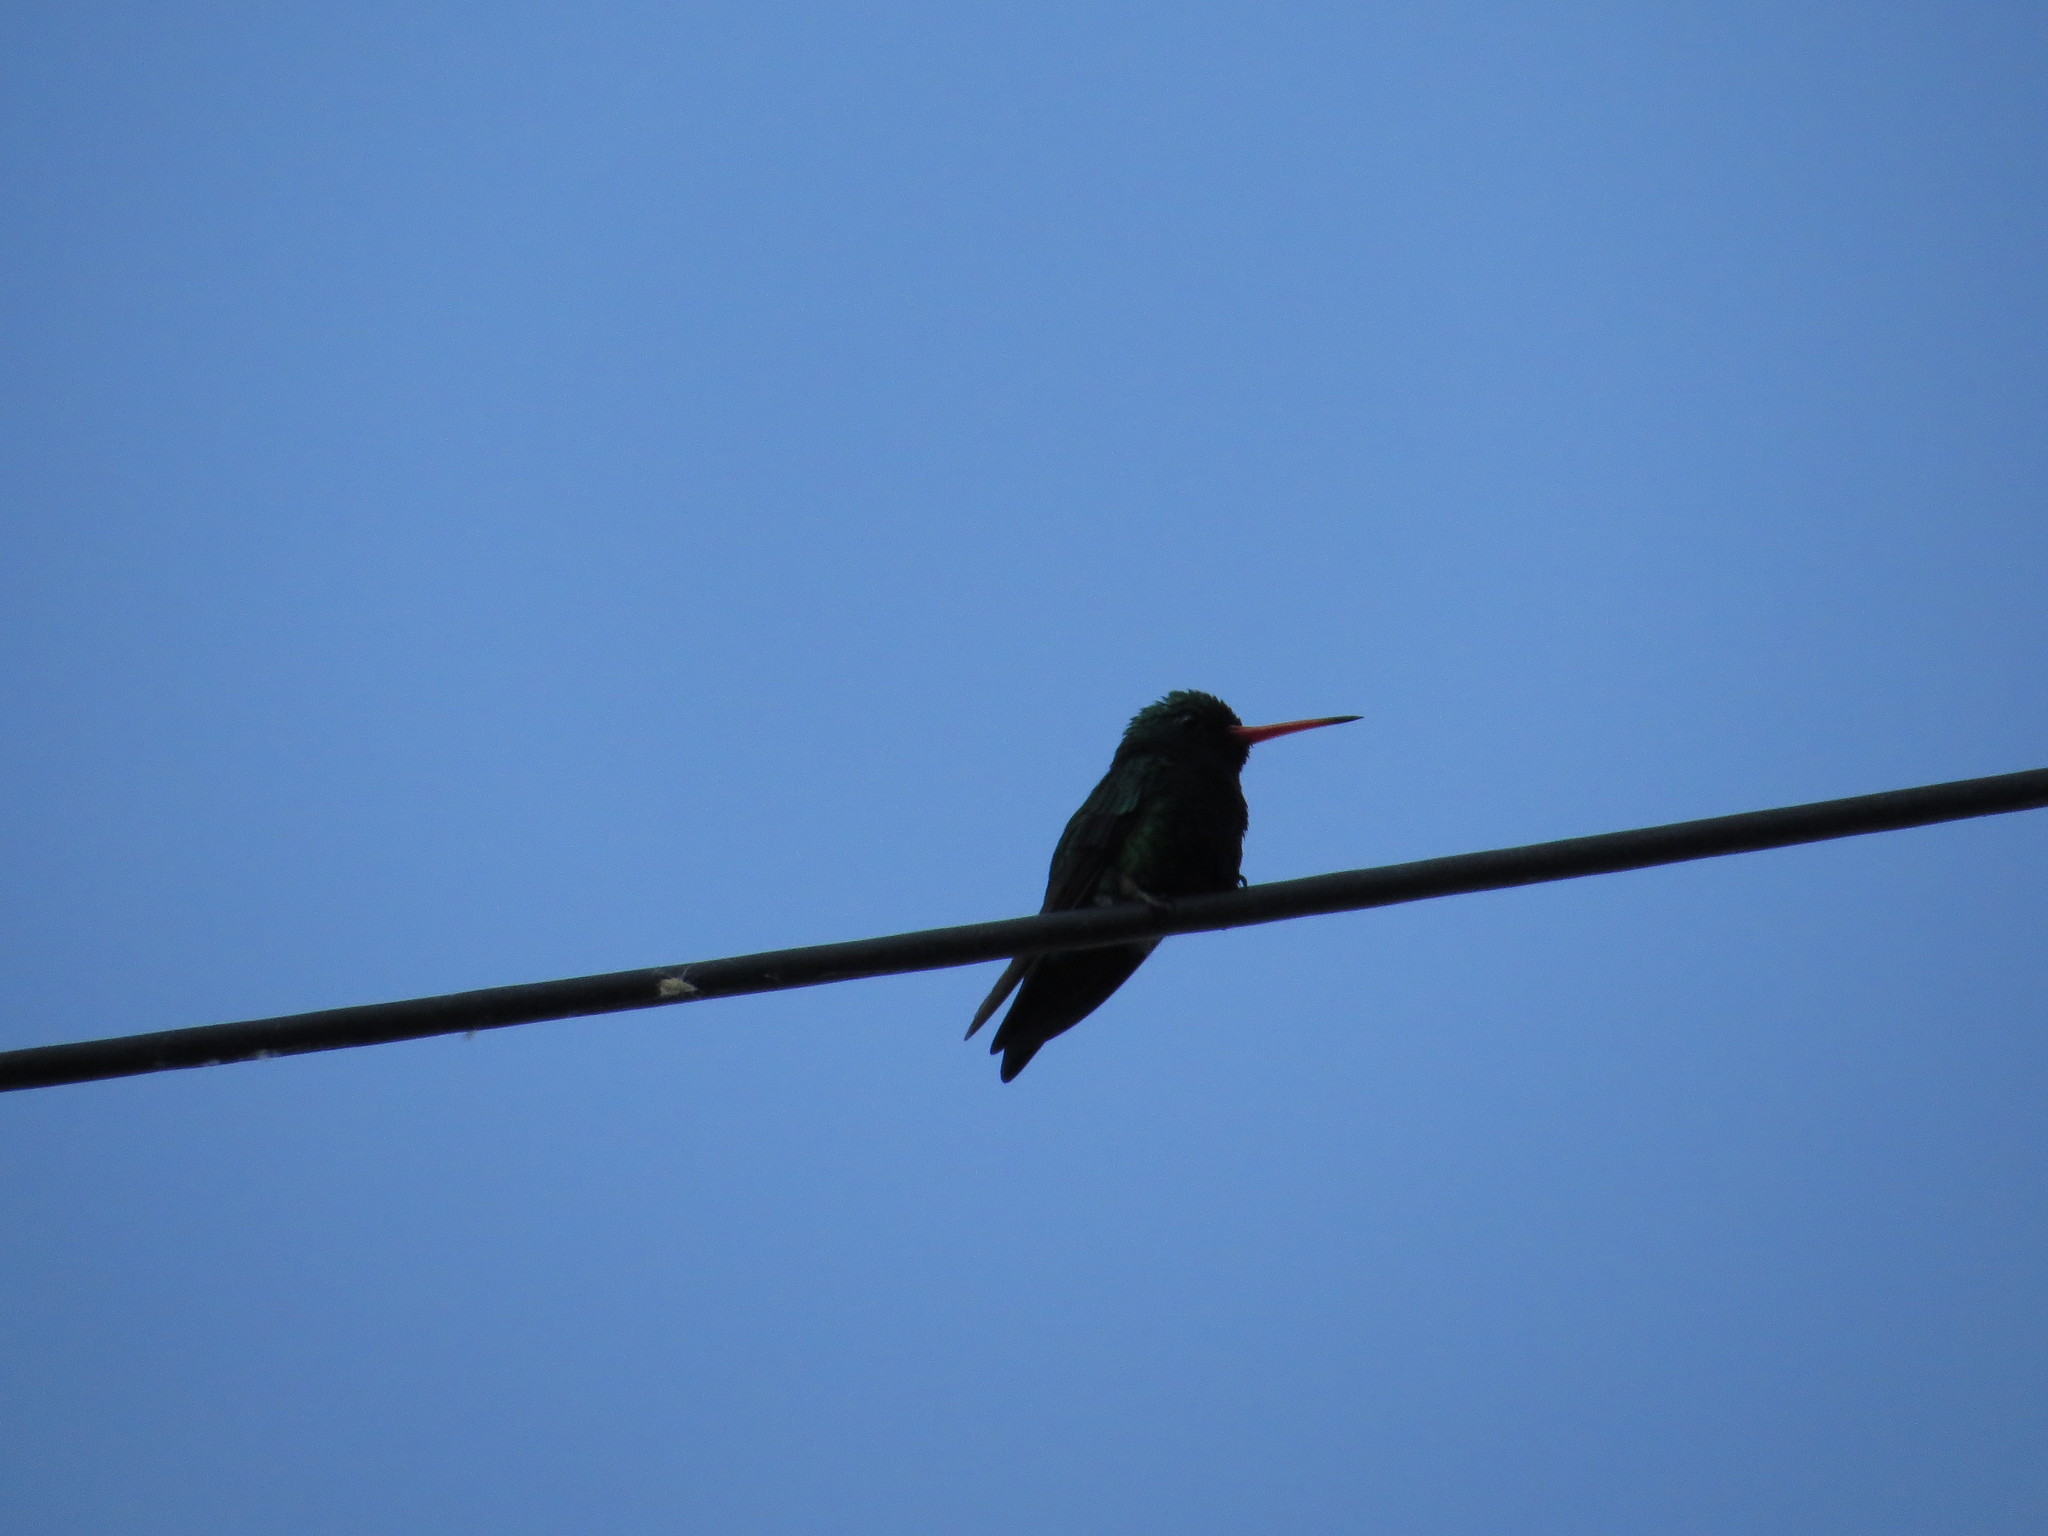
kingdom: Animalia
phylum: Chordata
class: Aves
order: Apodiformes
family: Trochilidae
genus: Chlorostilbon
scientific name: Chlorostilbon lucidus
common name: Glittering-bellied emerald
